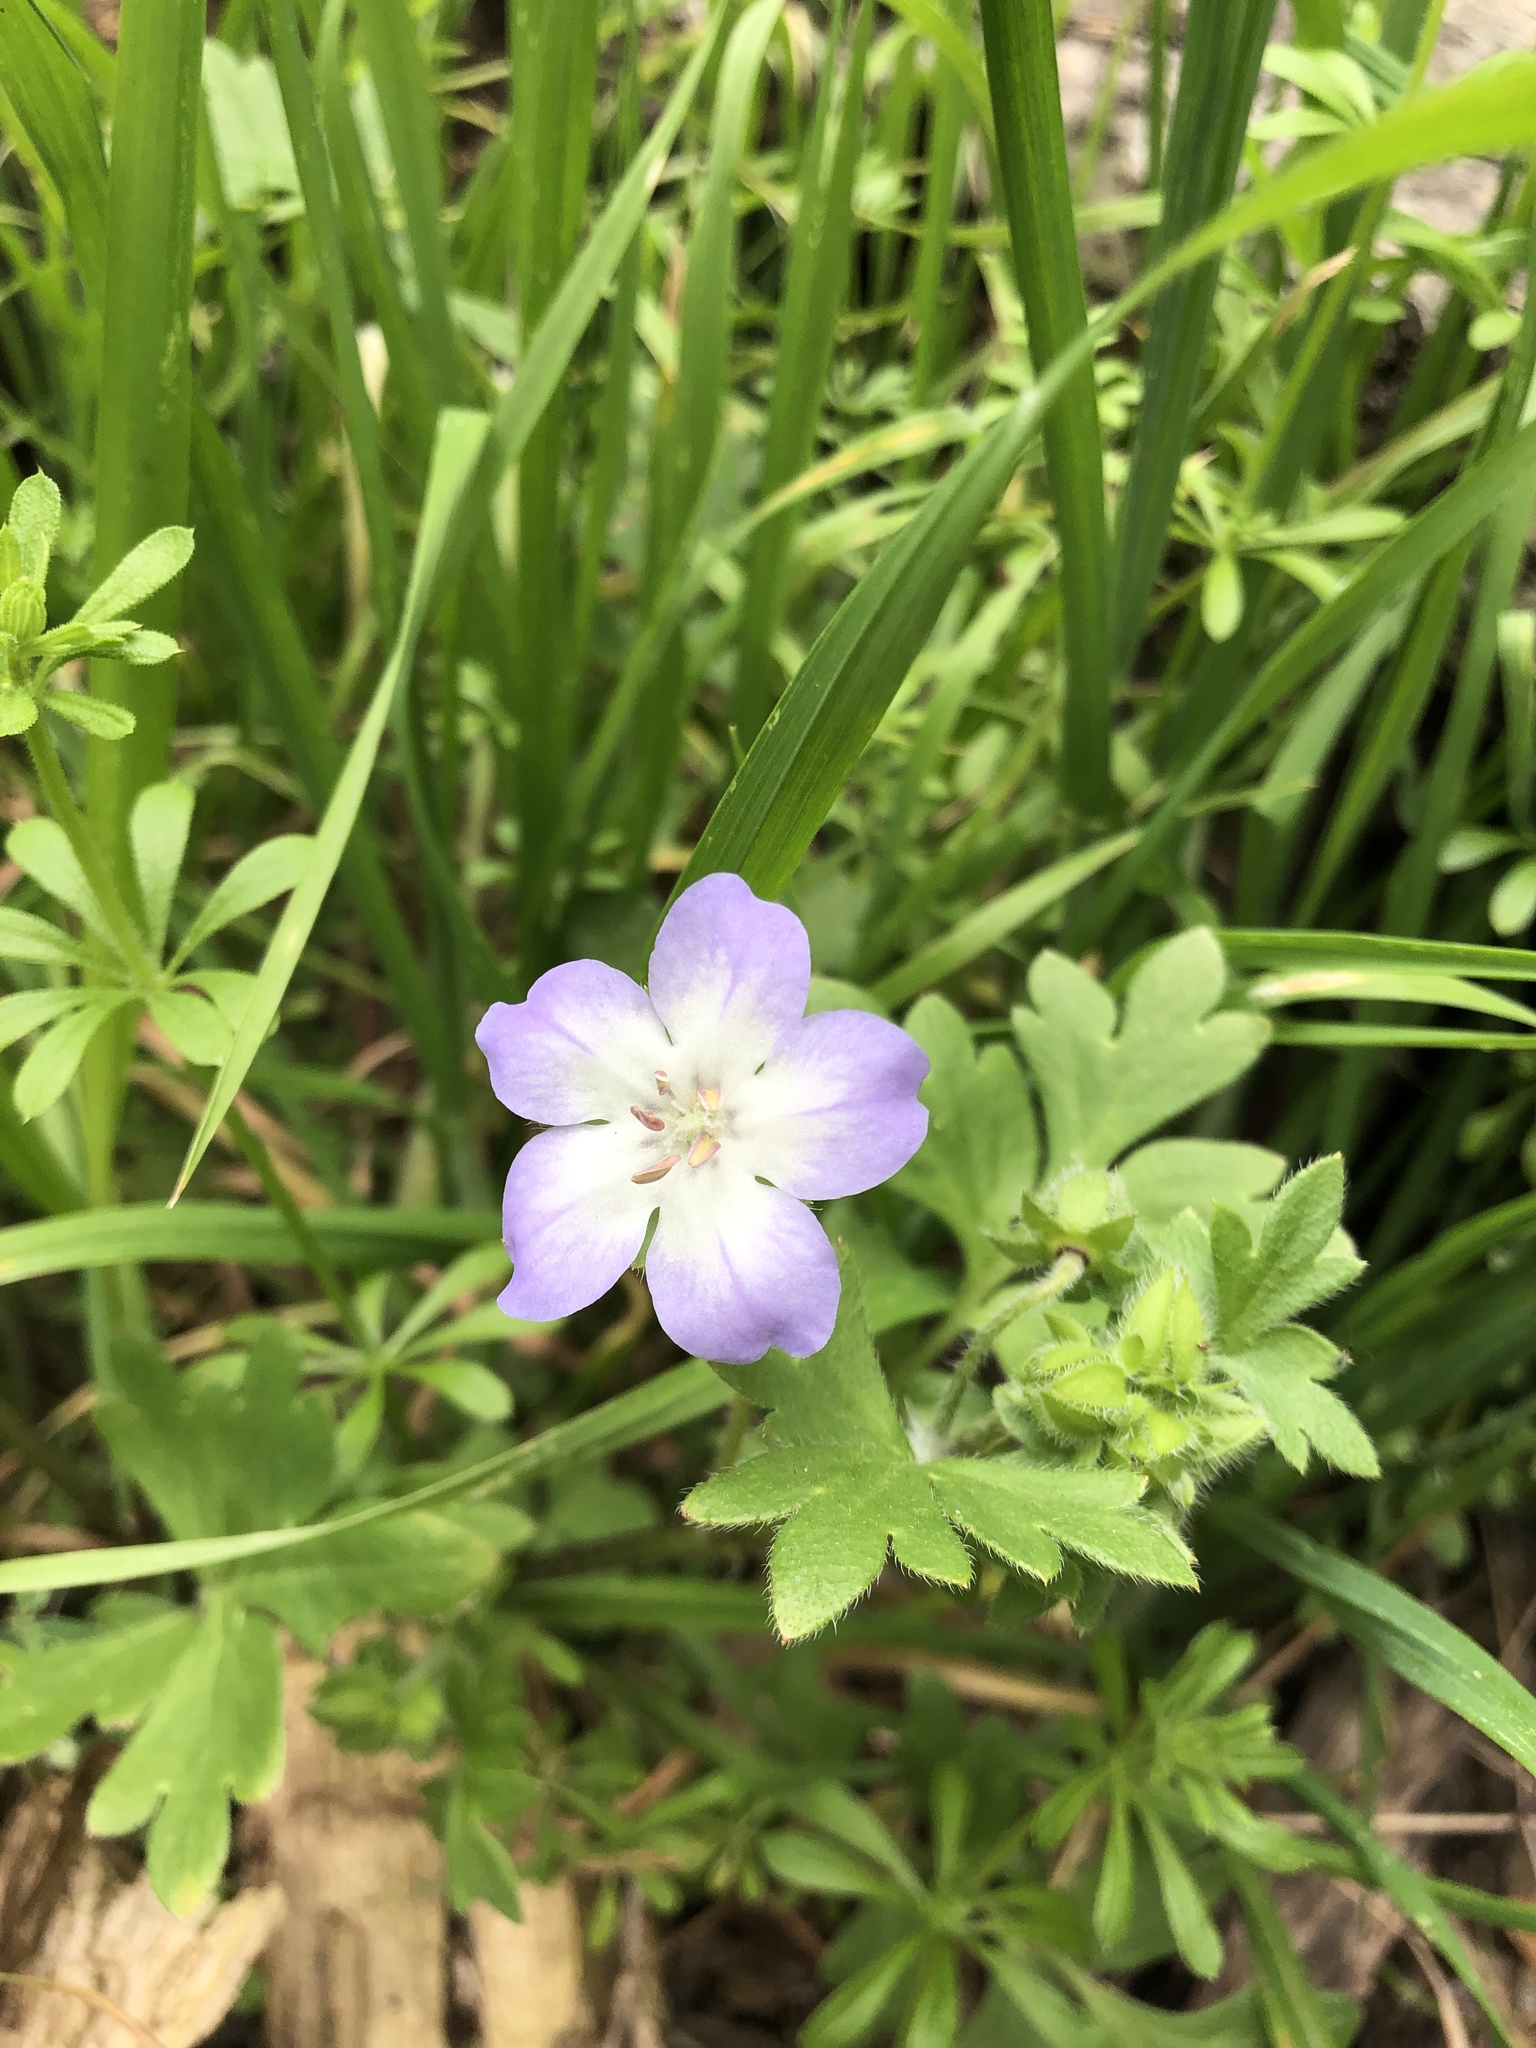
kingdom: Plantae
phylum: Tracheophyta
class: Magnoliopsida
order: Boraginales
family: Hydrophyllaceae
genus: Nemophila
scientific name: Nemophila phacelioides
